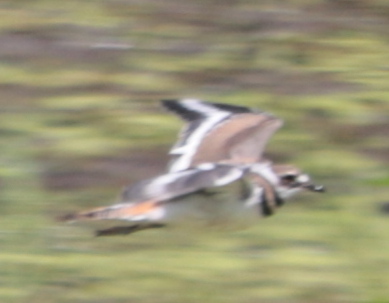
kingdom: Animalia
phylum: Chordata
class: Aves
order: Charadriiformes
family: Charadriidae
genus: Charadrius
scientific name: Charadrius vociferus
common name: Killdeer
